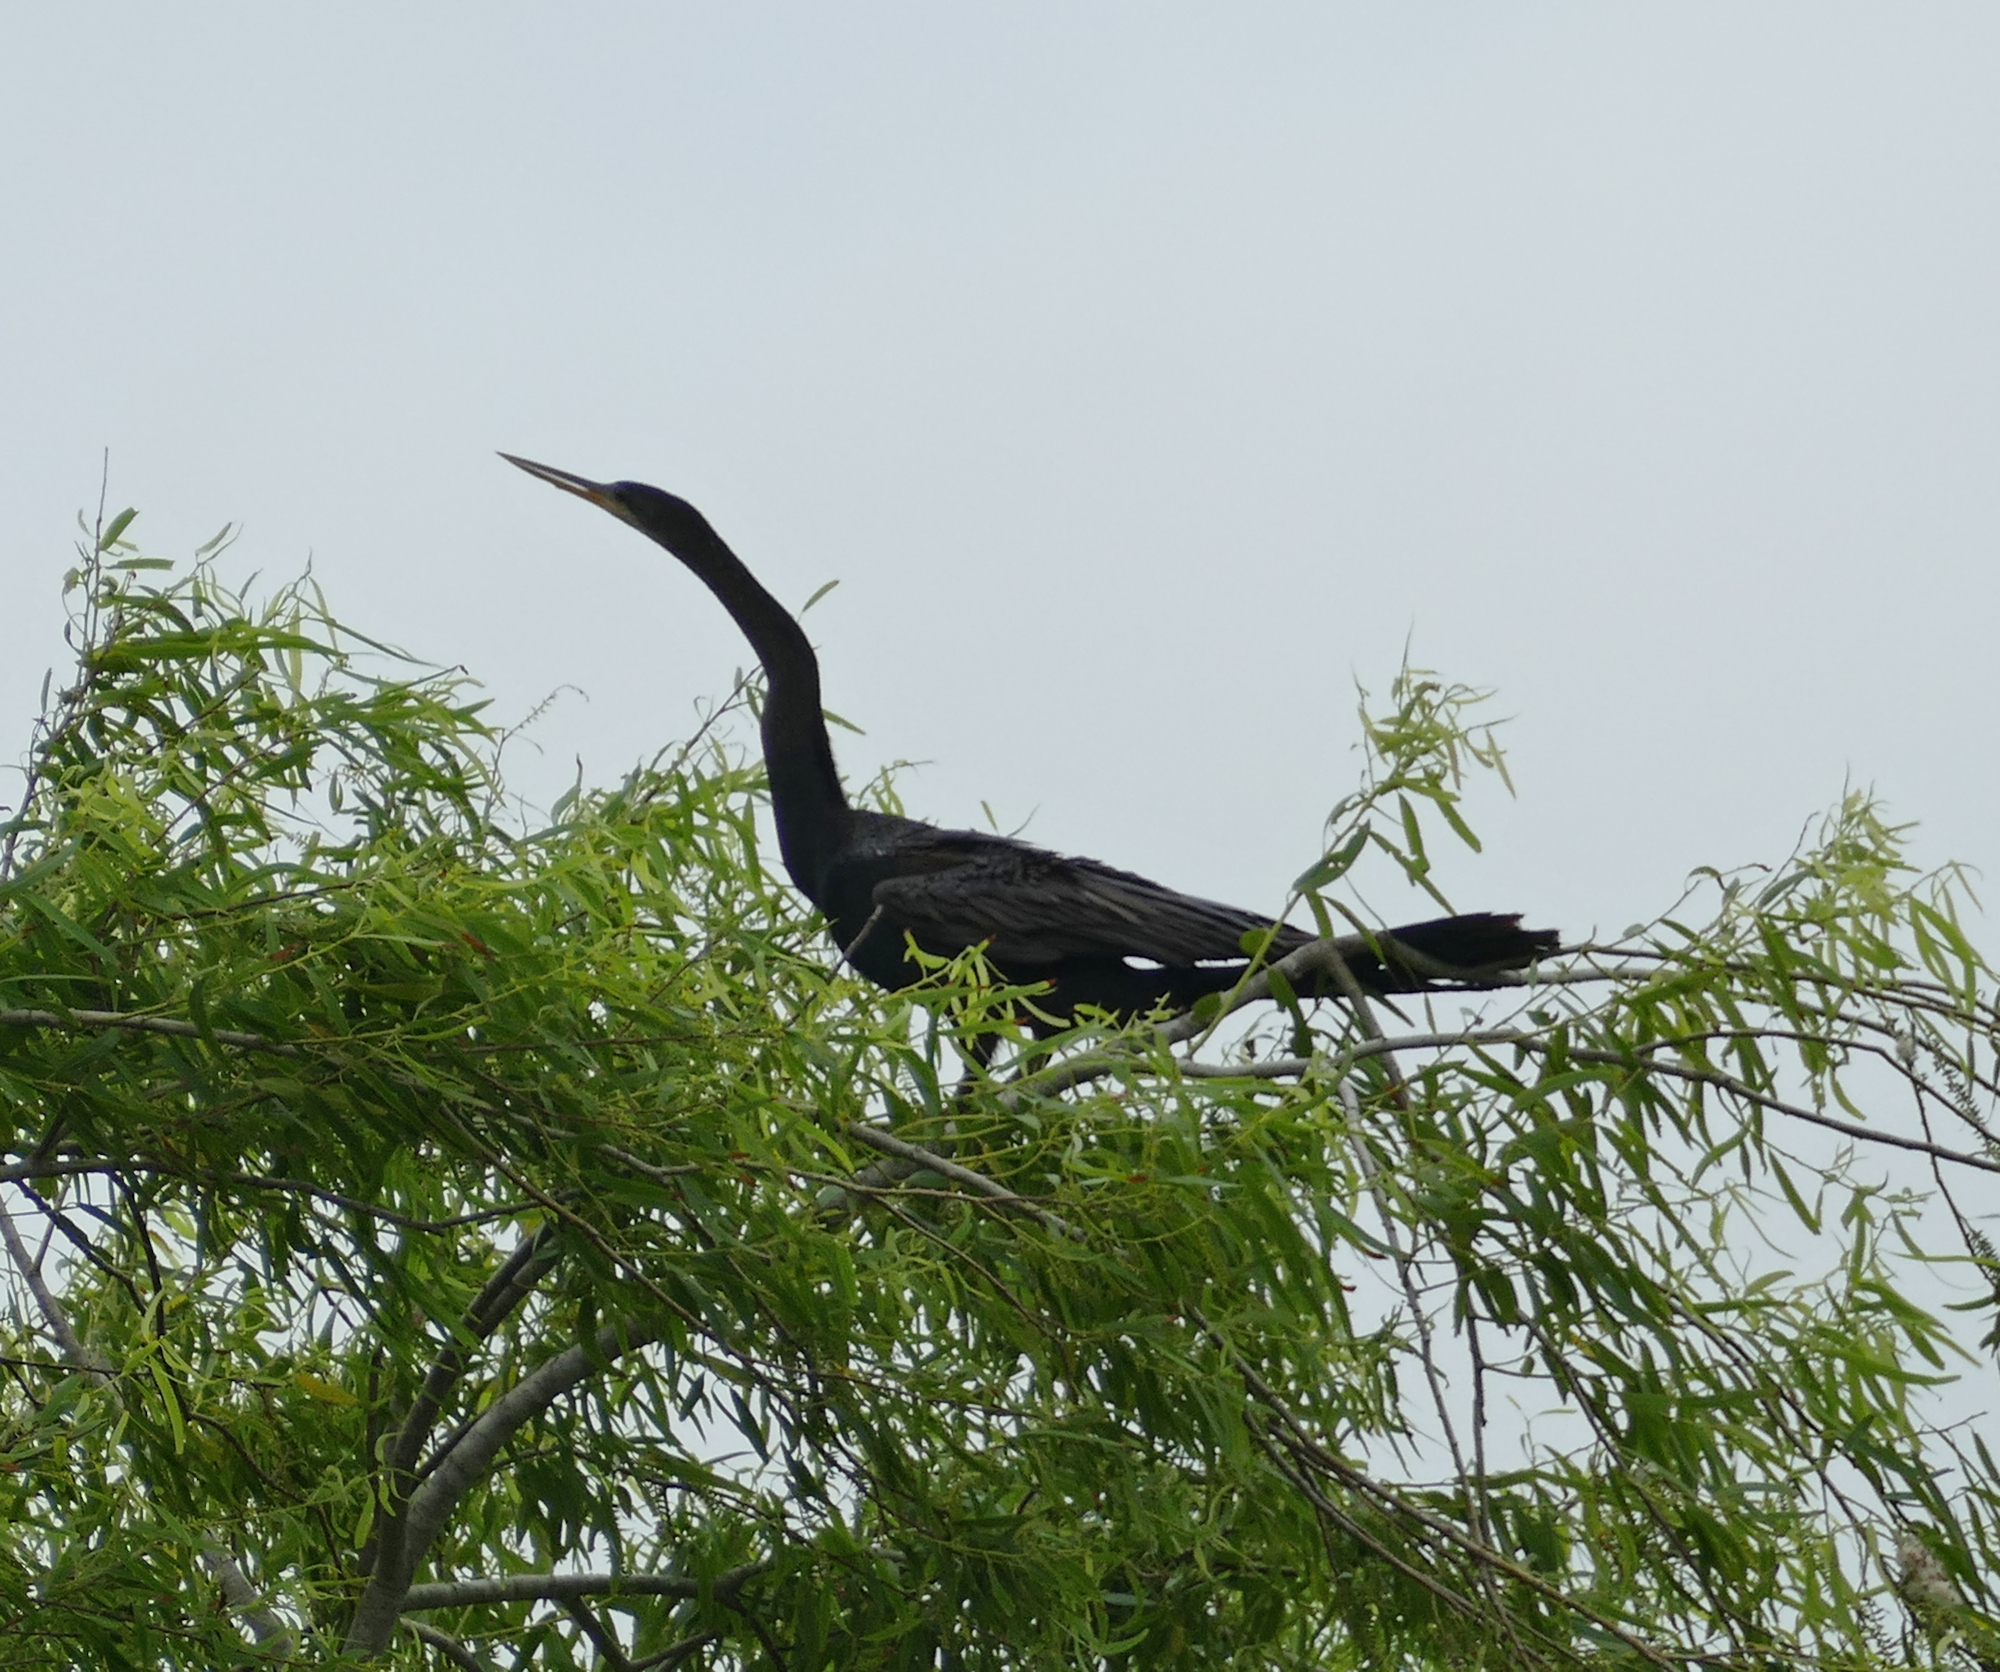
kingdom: Animalia
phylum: Chordata
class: Aves
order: Suliformes
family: Anhingidae
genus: Anhinga
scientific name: Anhinga anhinga
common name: Anhinga
